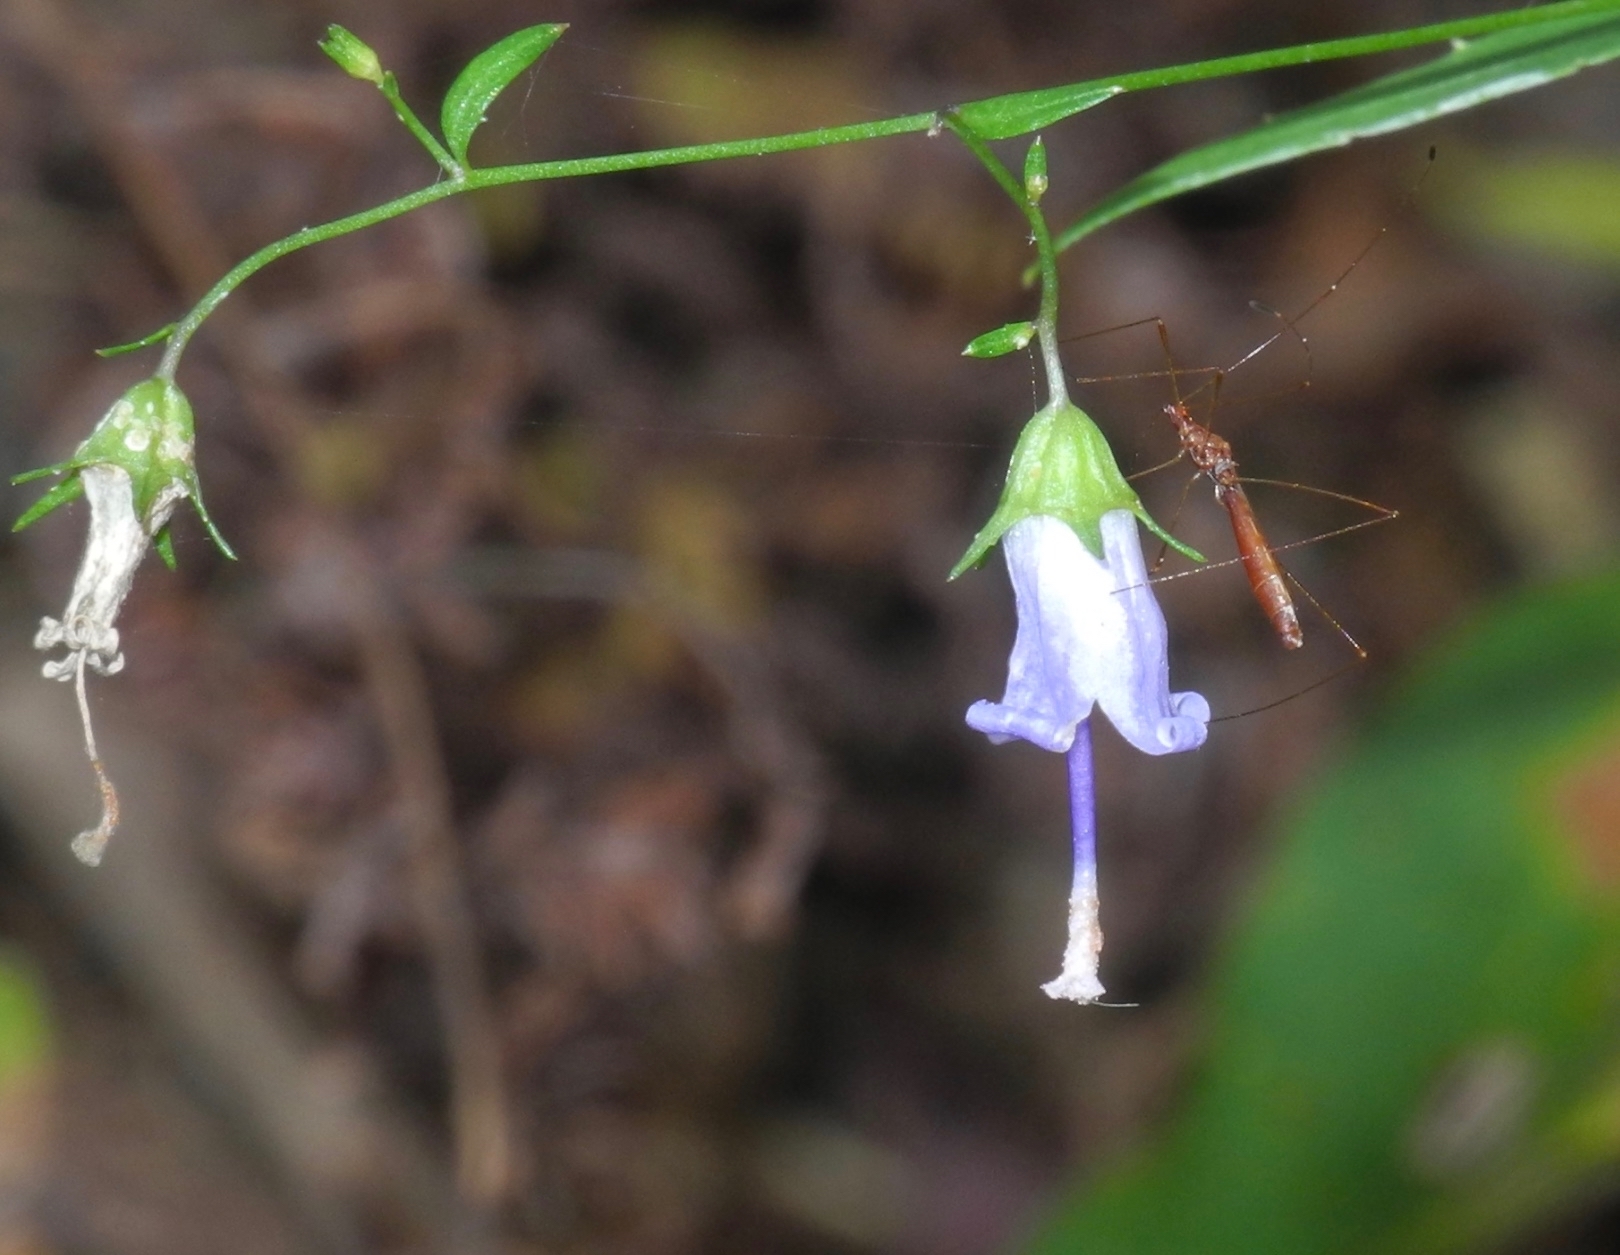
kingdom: Plantae
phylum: Tracheophyta
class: Magnoliopsida
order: Asterales
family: Campanulaceae
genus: Campanula
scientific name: Campanula divaricata
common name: Appalachian bellflower
